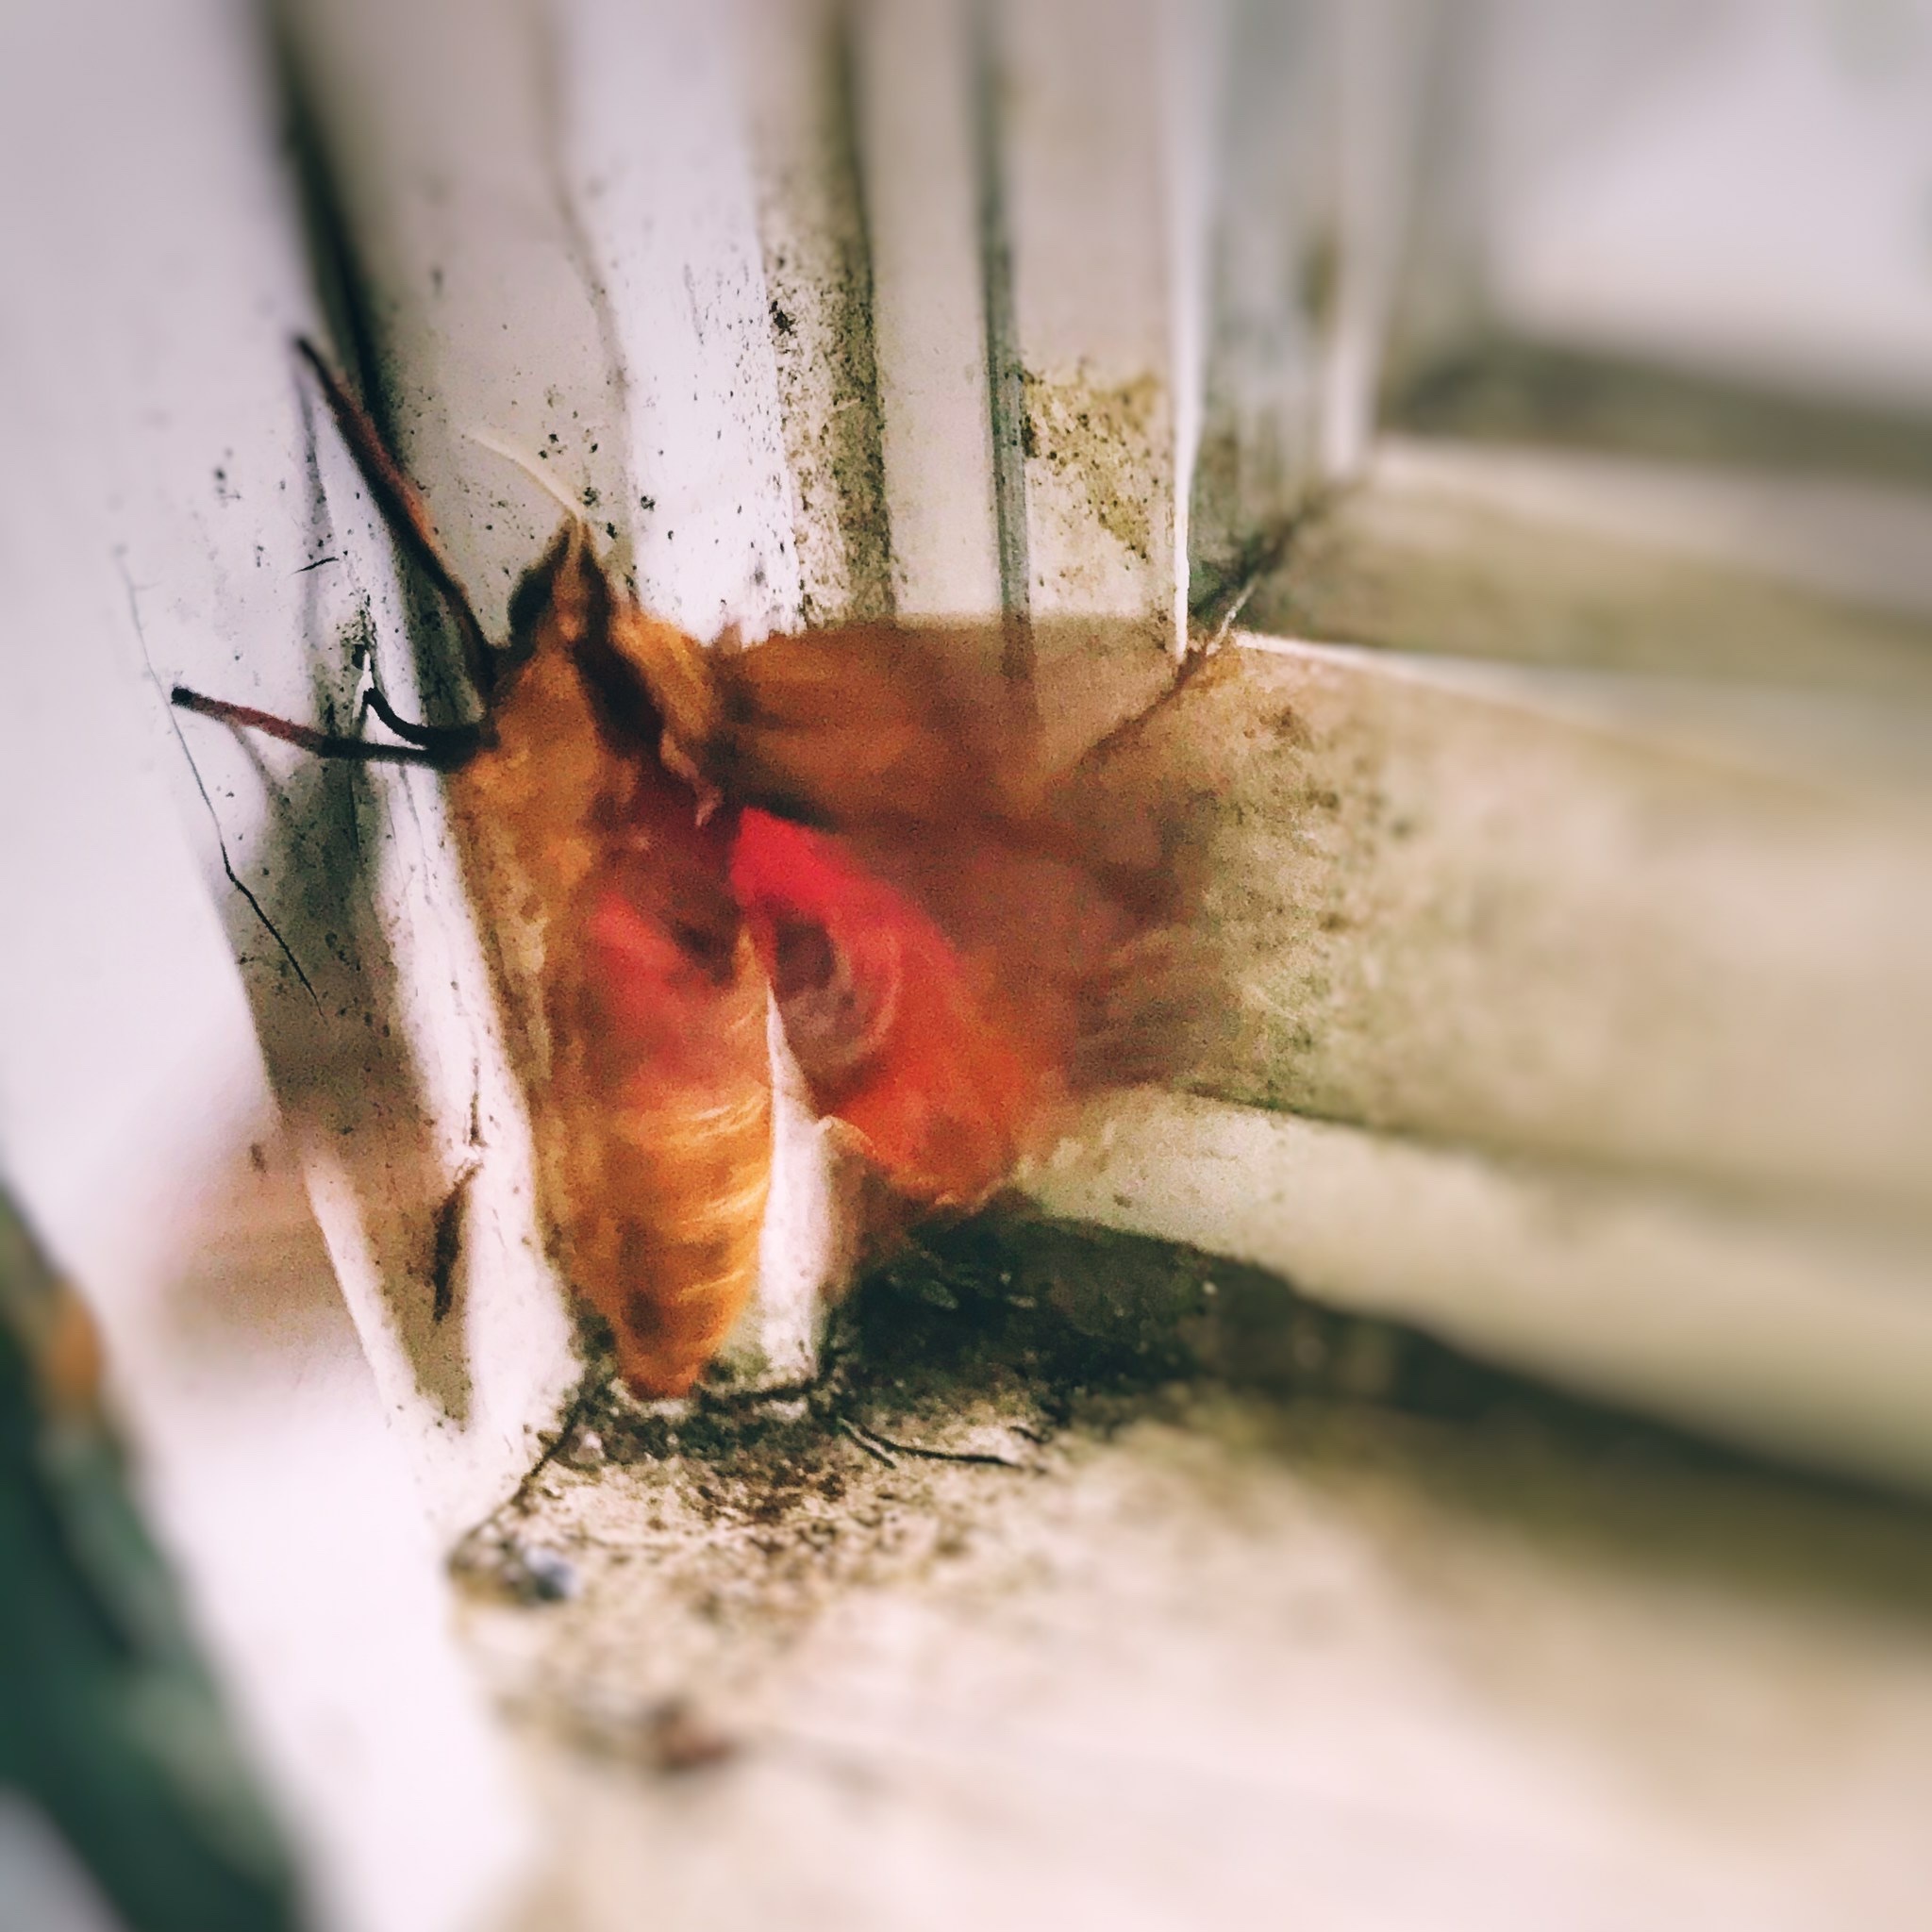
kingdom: Animalia
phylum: Arthropoda
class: Insecta
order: Lepidoptera
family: Sphingidae
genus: Paonias
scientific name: Paonias excaecata
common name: Blind-eyed sphinx
